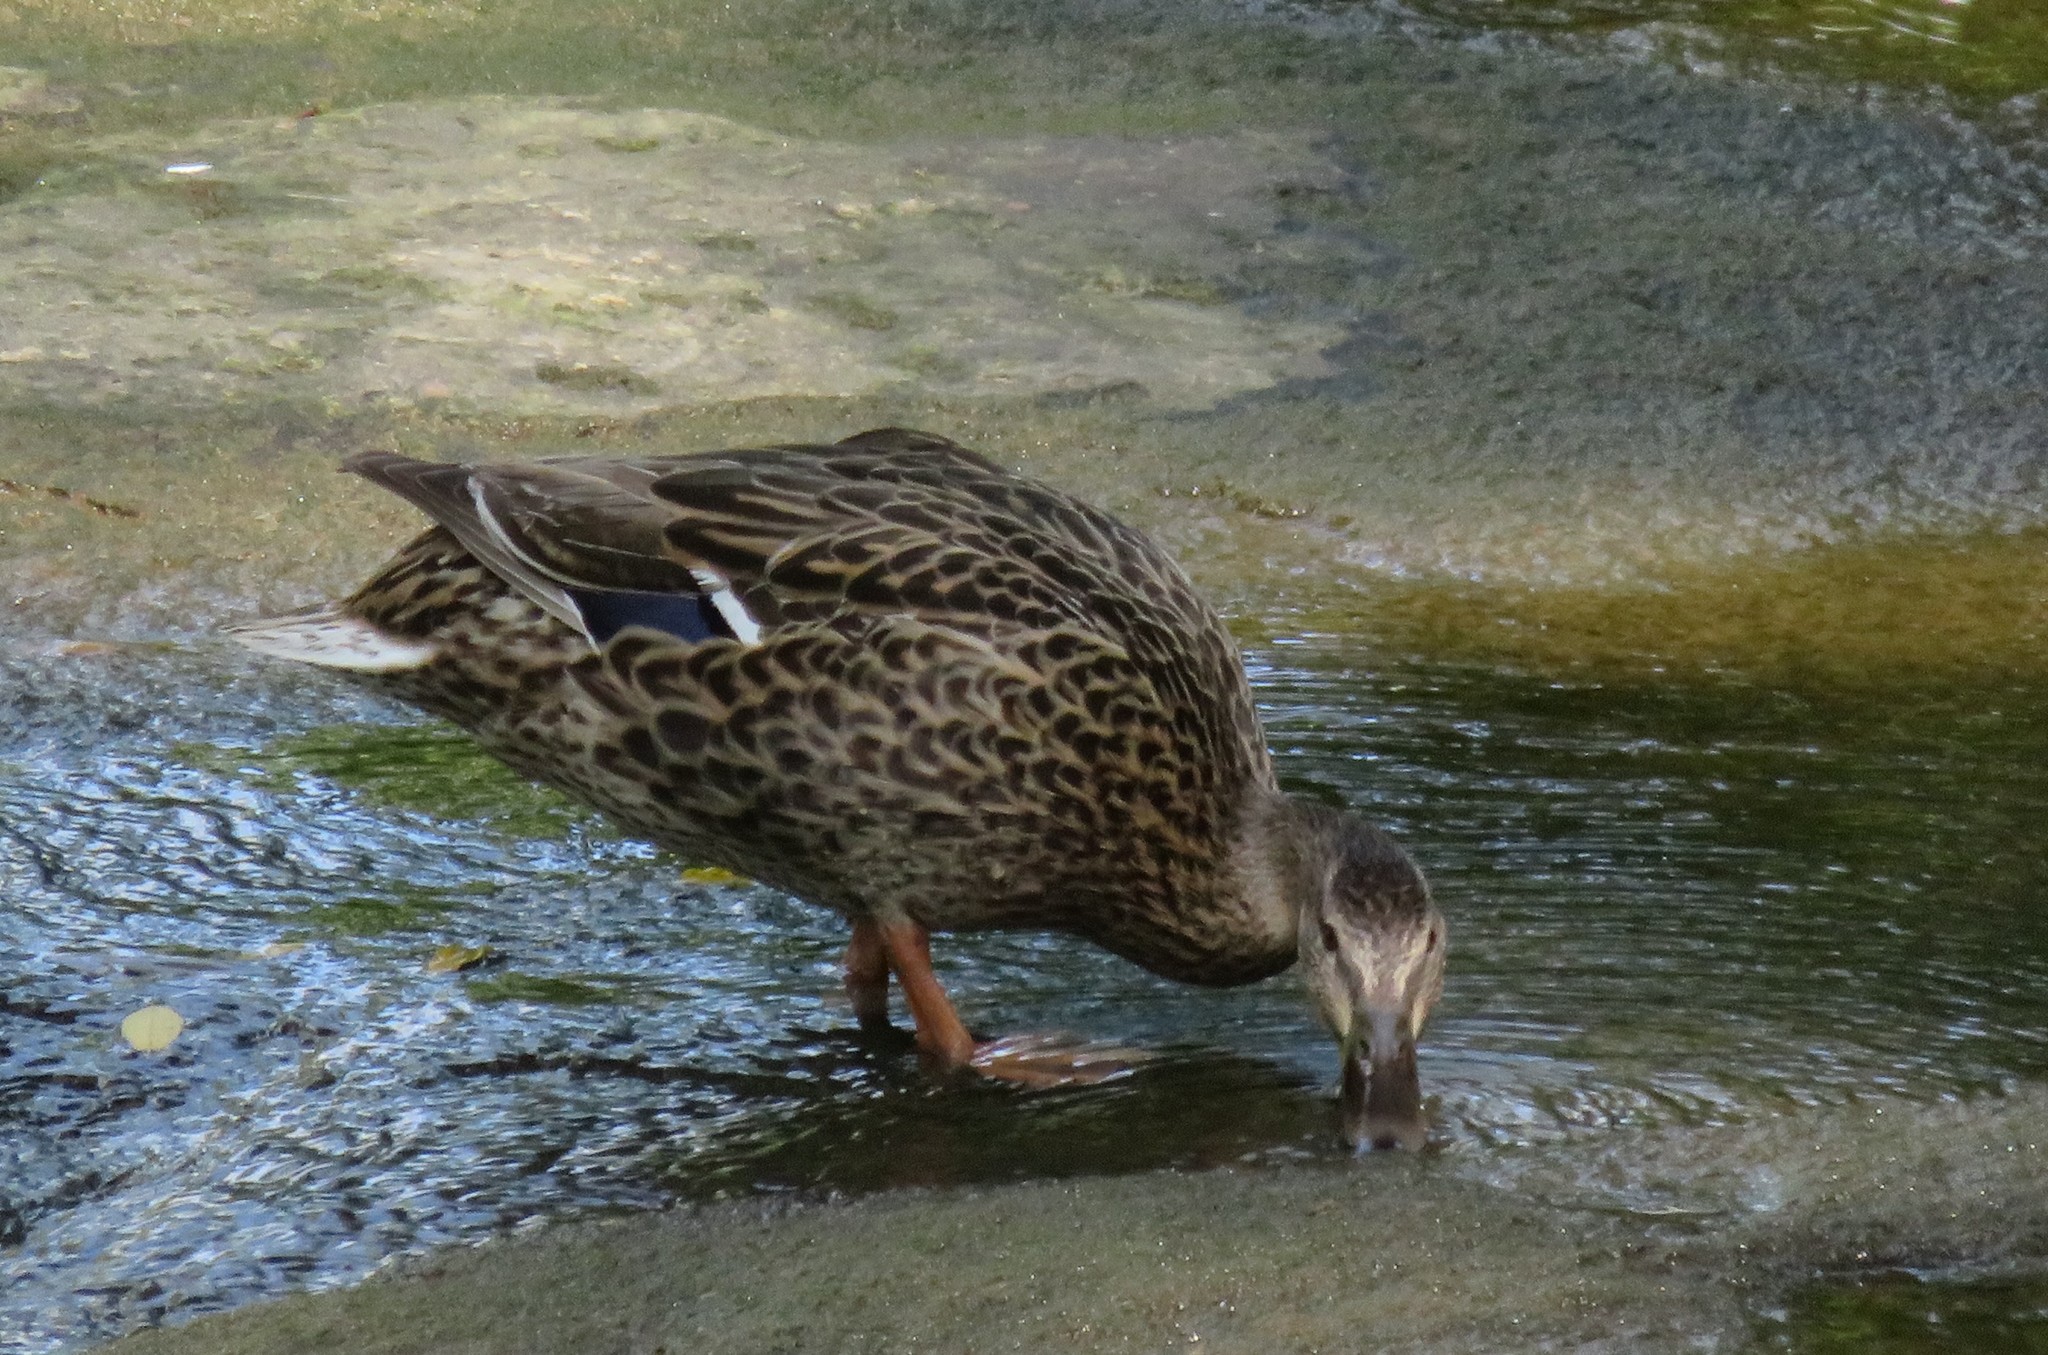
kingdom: Animalia
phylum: Chordata
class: Aves
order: Anseriformes
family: Anatidae
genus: Anas
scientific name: Anas platyrhynchos
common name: Mallard
